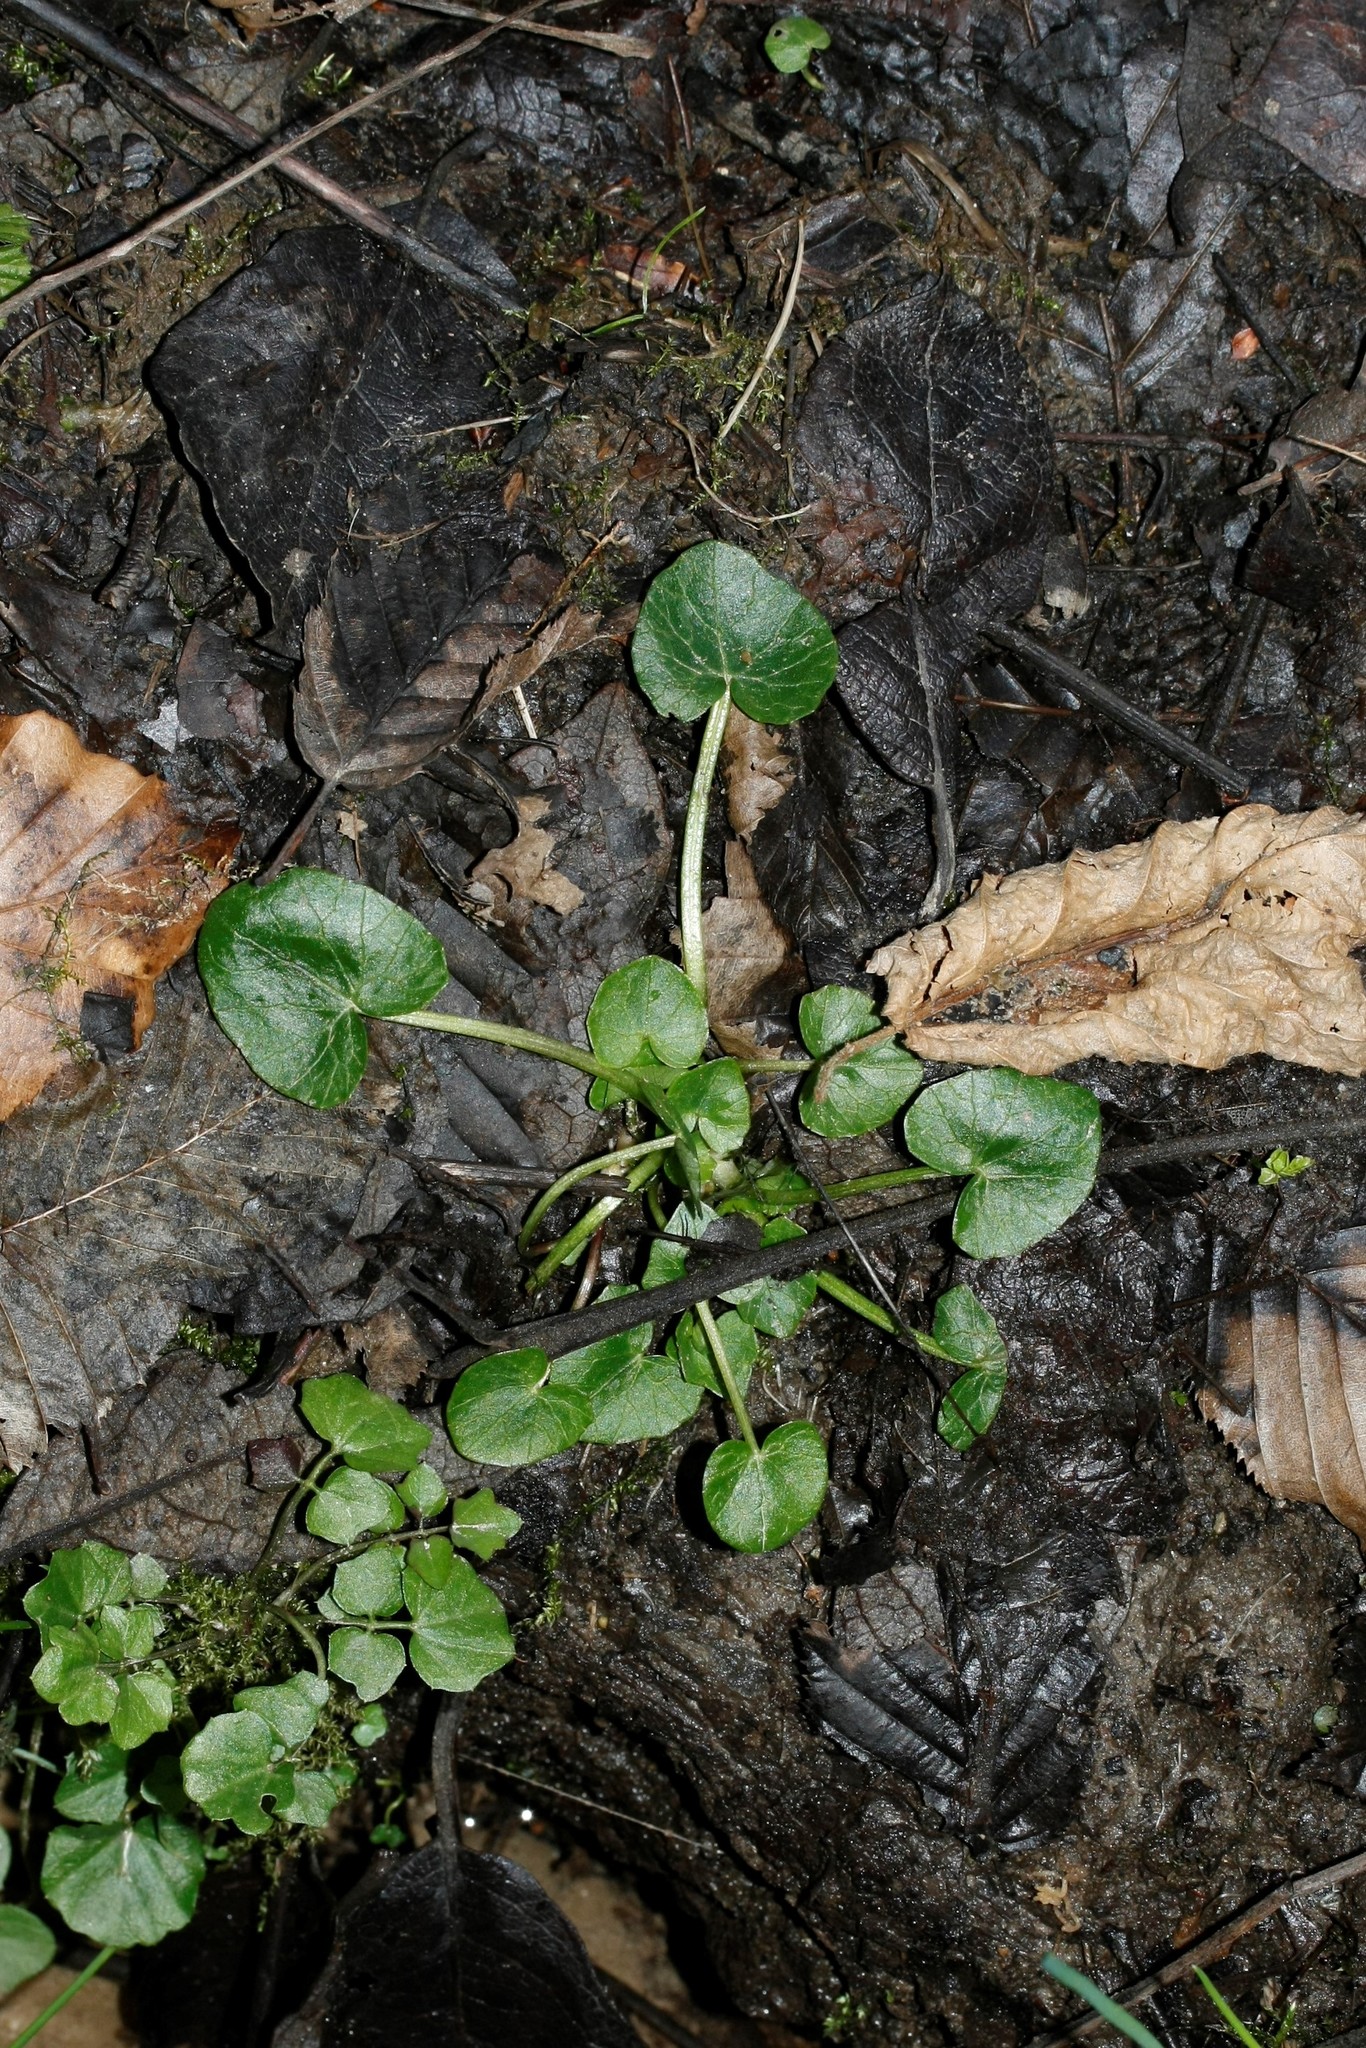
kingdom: Plantae
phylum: Tracheophyta
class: Magnoliopsida
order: Ranunculales
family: Ranunculaceae
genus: Ficaria
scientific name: Ficaria verna
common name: Lesser celandine
